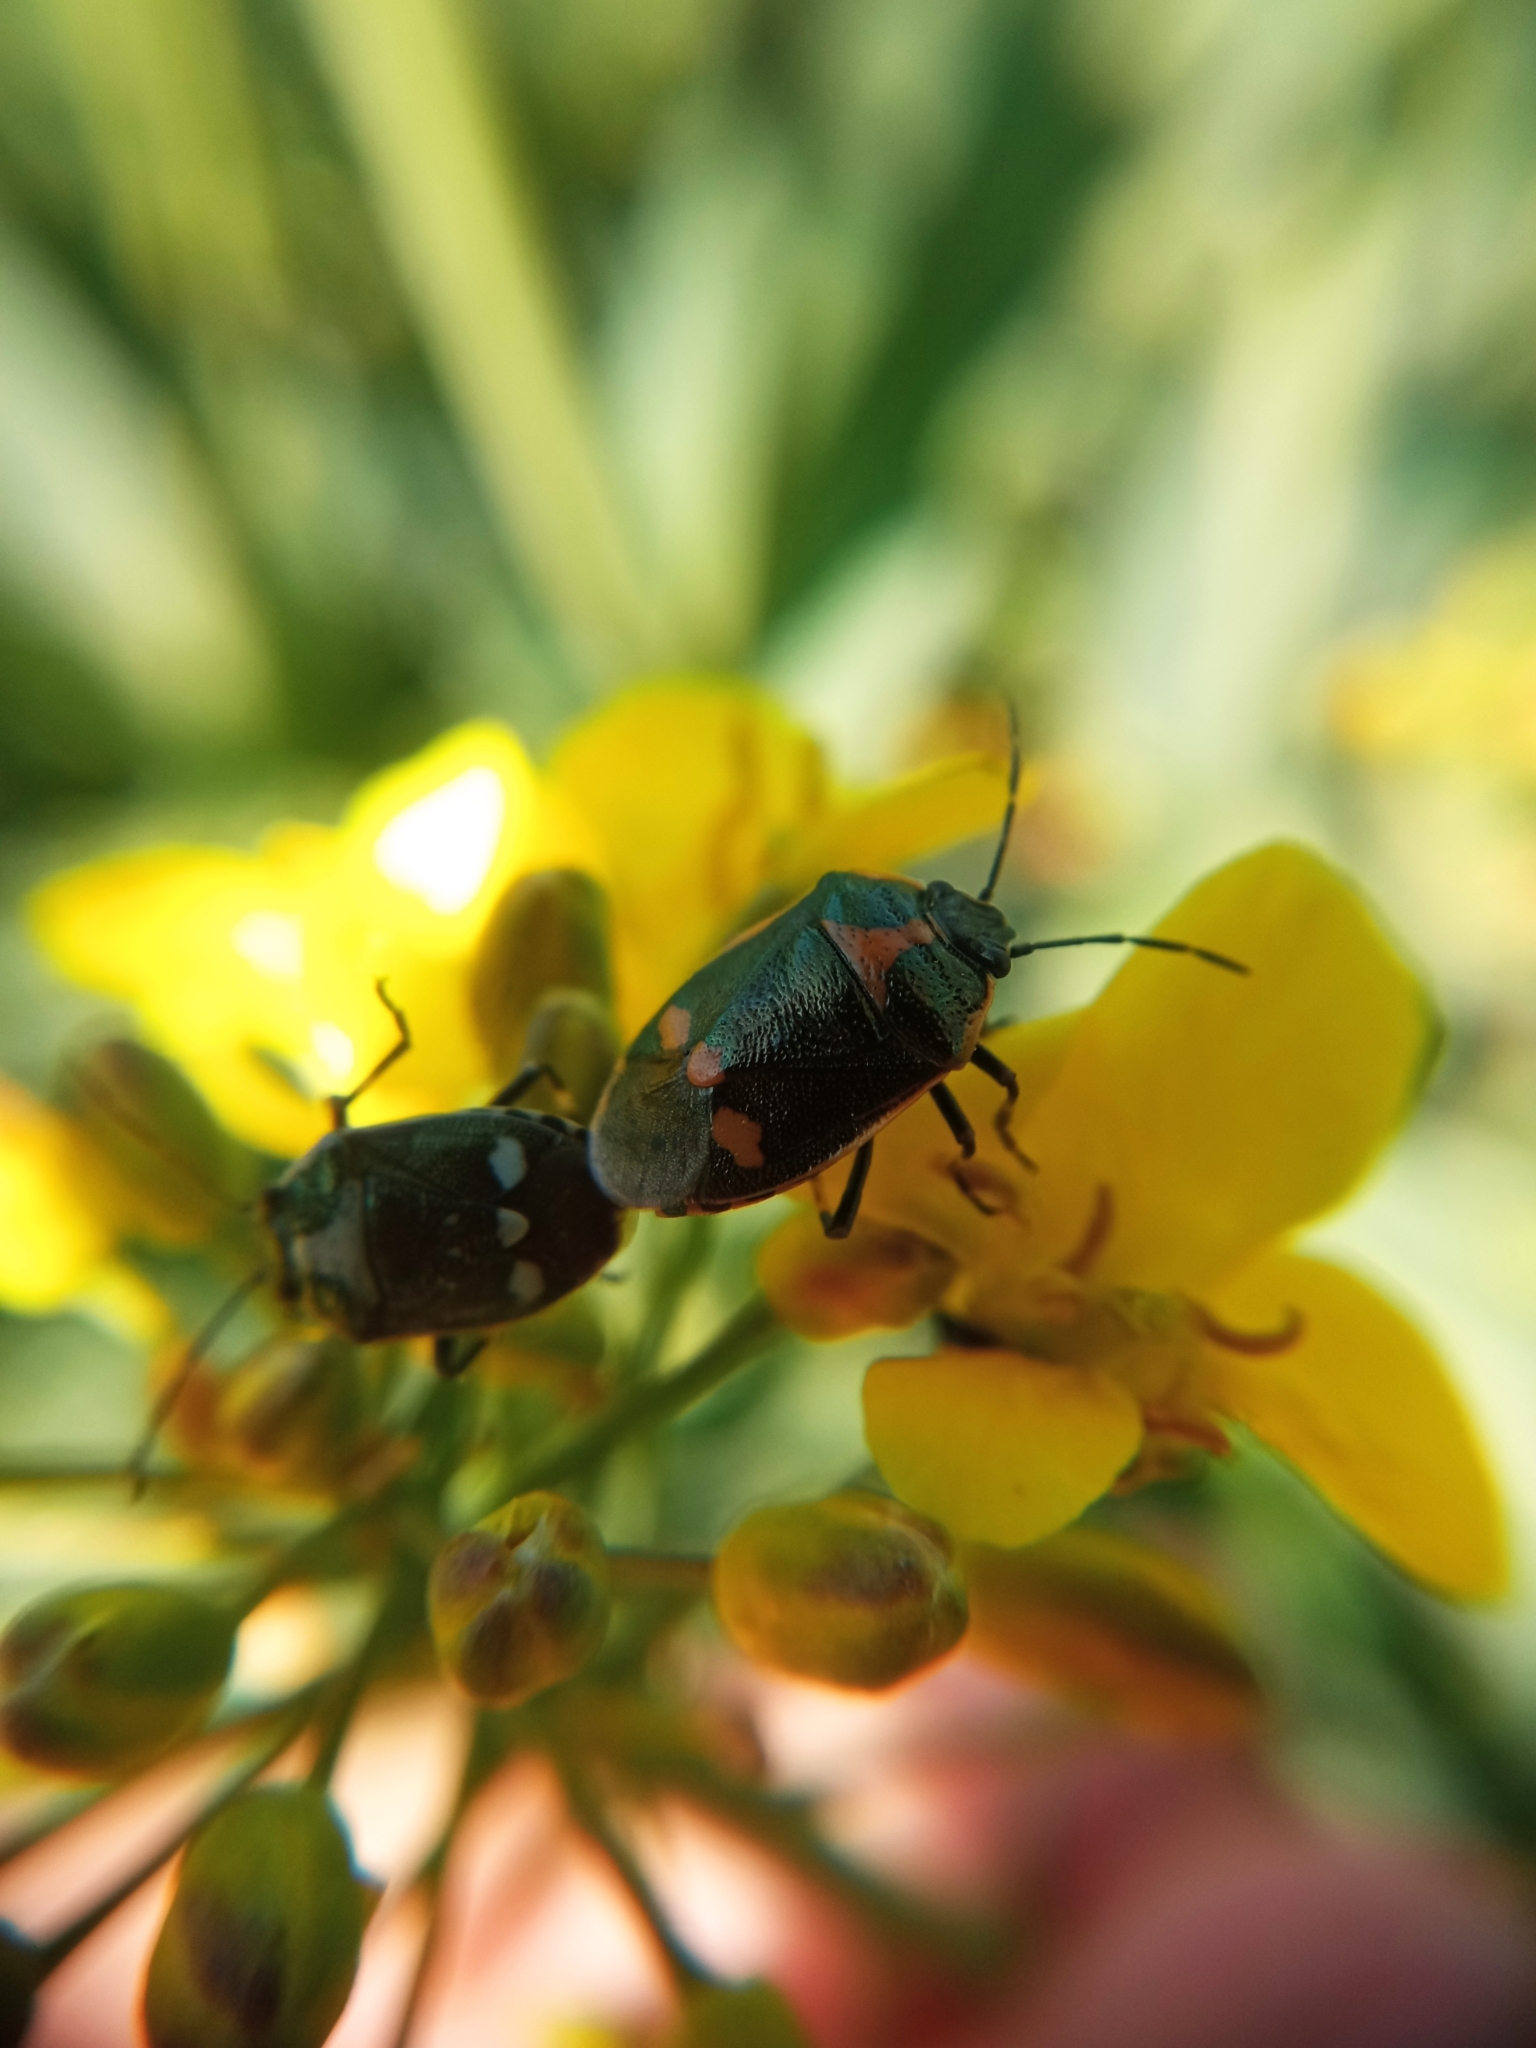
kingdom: Animalia
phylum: Arthropoda
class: Insecta
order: Hemiptera
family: Pentatomidae
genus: Eurydema
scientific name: Eurydema oleracea
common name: Cabbage bug
